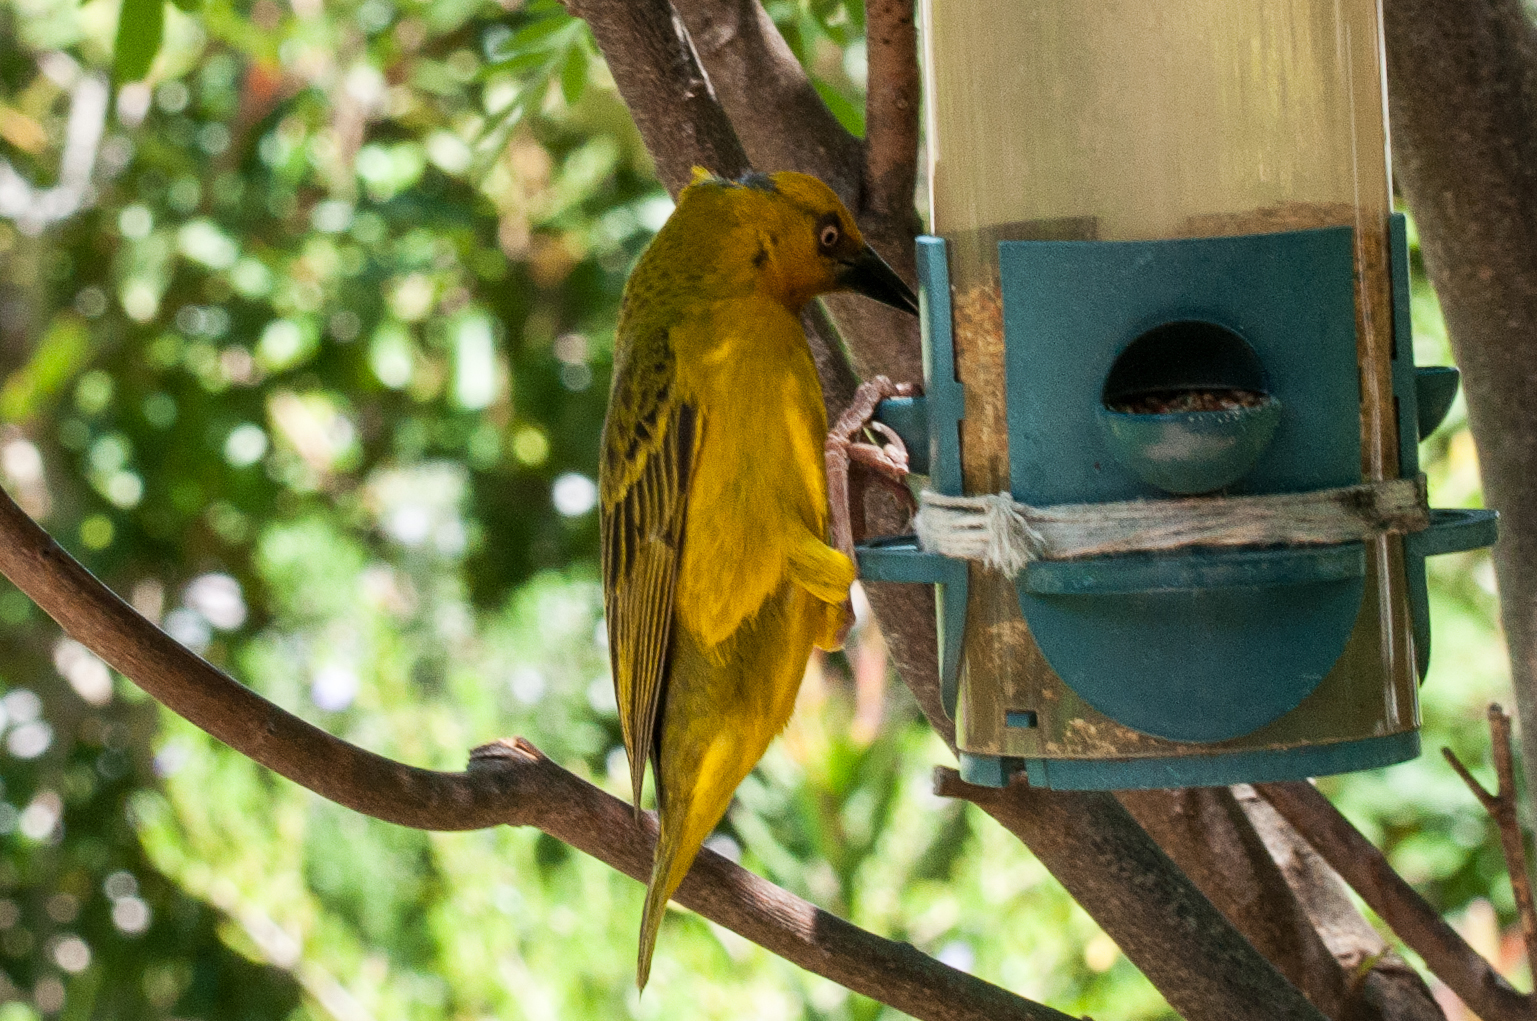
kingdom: Animalia
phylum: Chordata
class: Aves
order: Passeriformes
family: Ploceidae
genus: Ploceus
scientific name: Ploceus capensis
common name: Cape weaver
